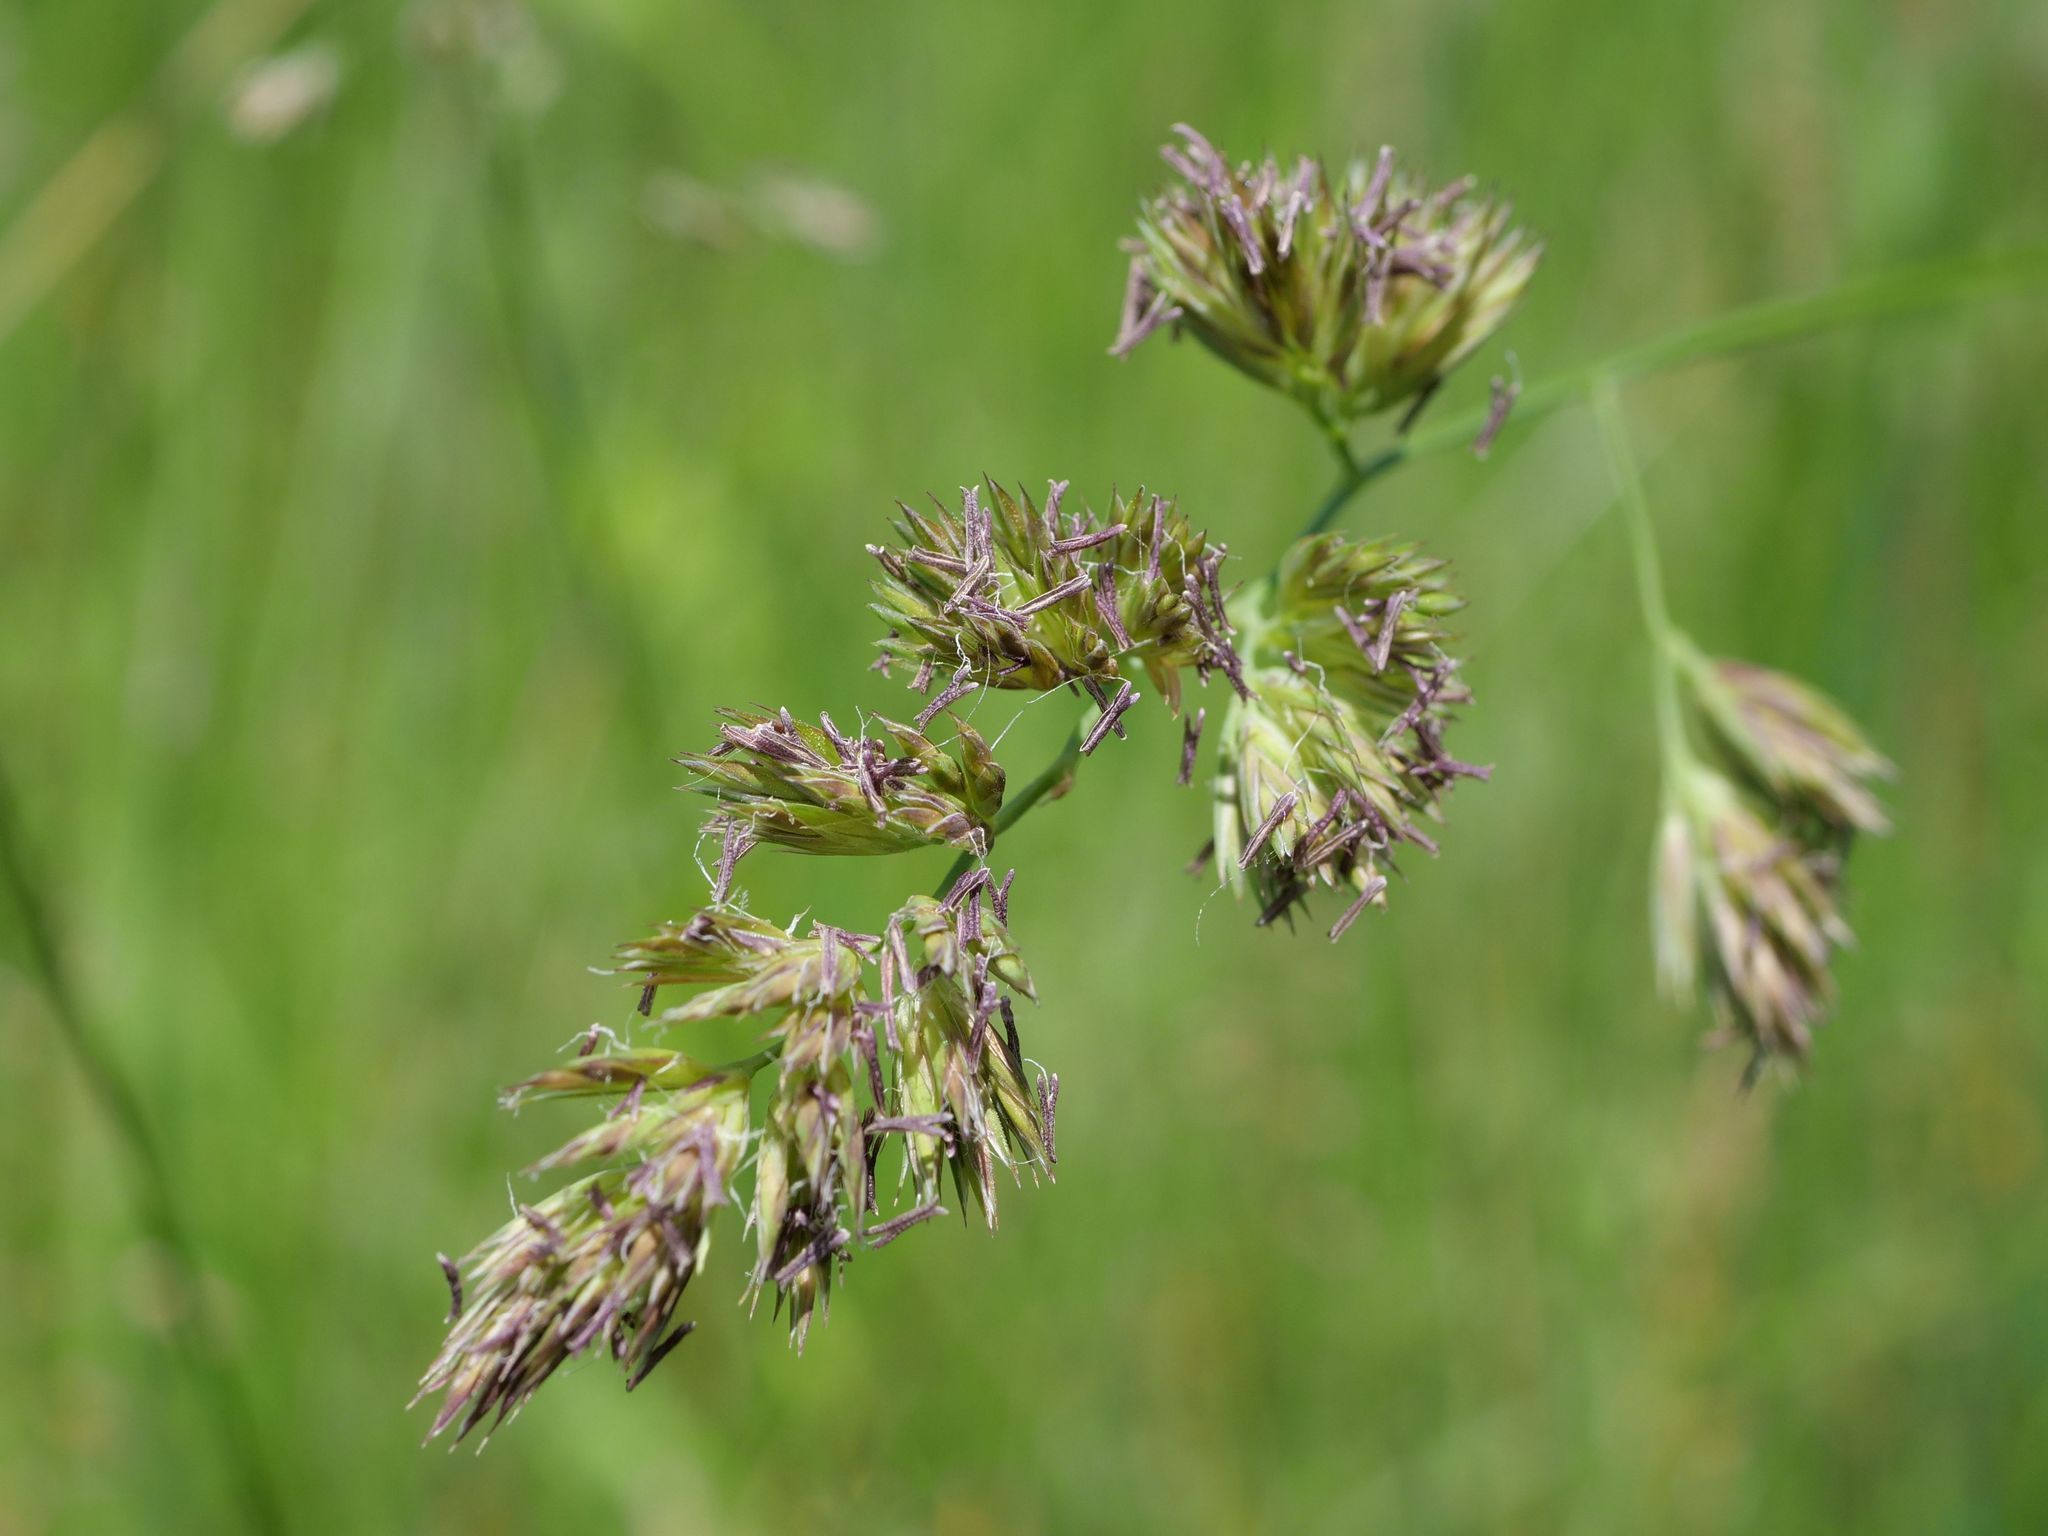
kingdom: Plantae
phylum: Tracheophyta
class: Liliopsida
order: Poales
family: Poaceae
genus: Dactylis
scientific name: Dactylis glomerata
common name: Orchardgrass
